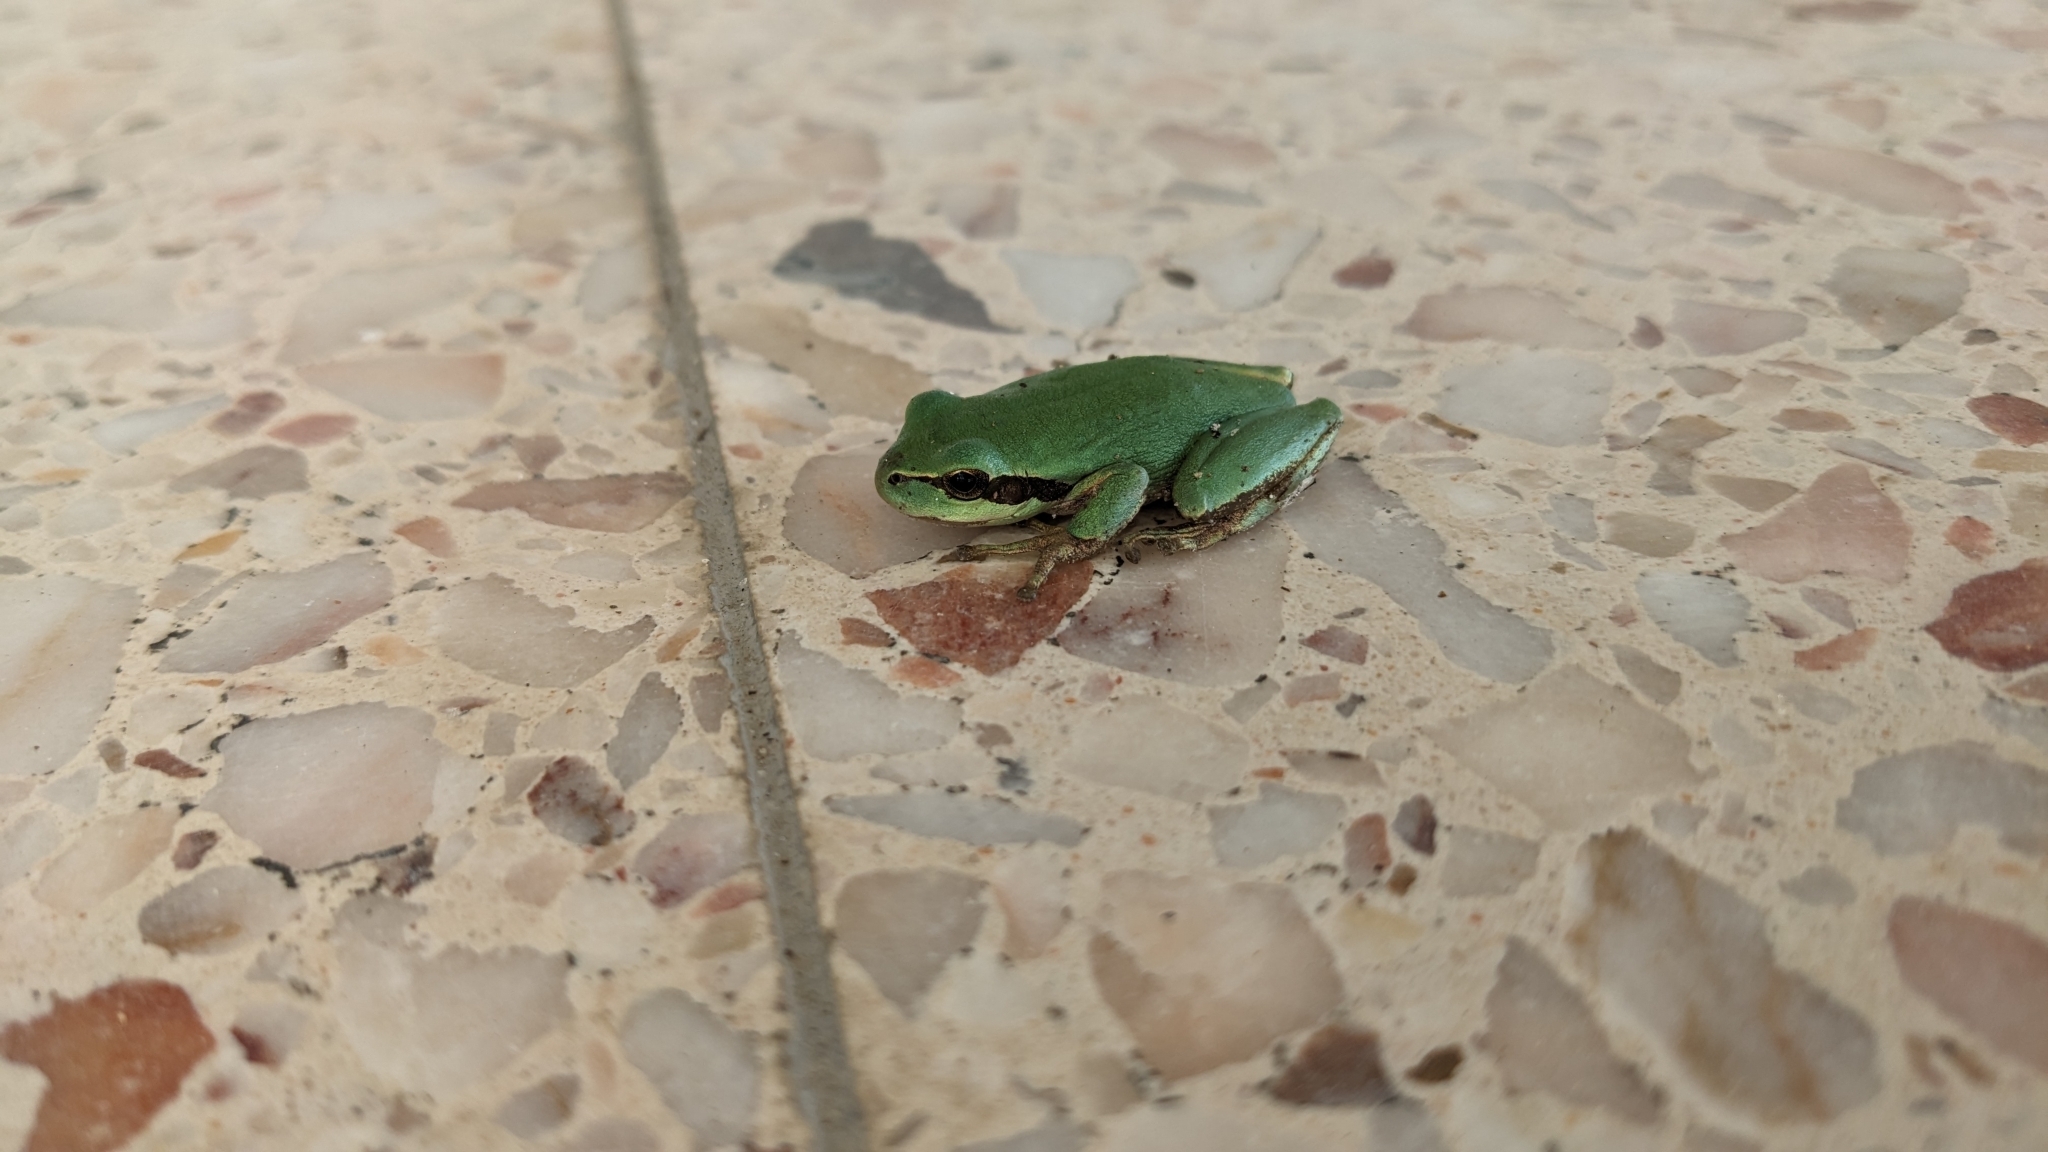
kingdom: Animalia
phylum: Chordata
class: Amphibia
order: Anura
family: Hylidae
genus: Hyla
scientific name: Hyla meridionalis
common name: Stripeless tree frog
